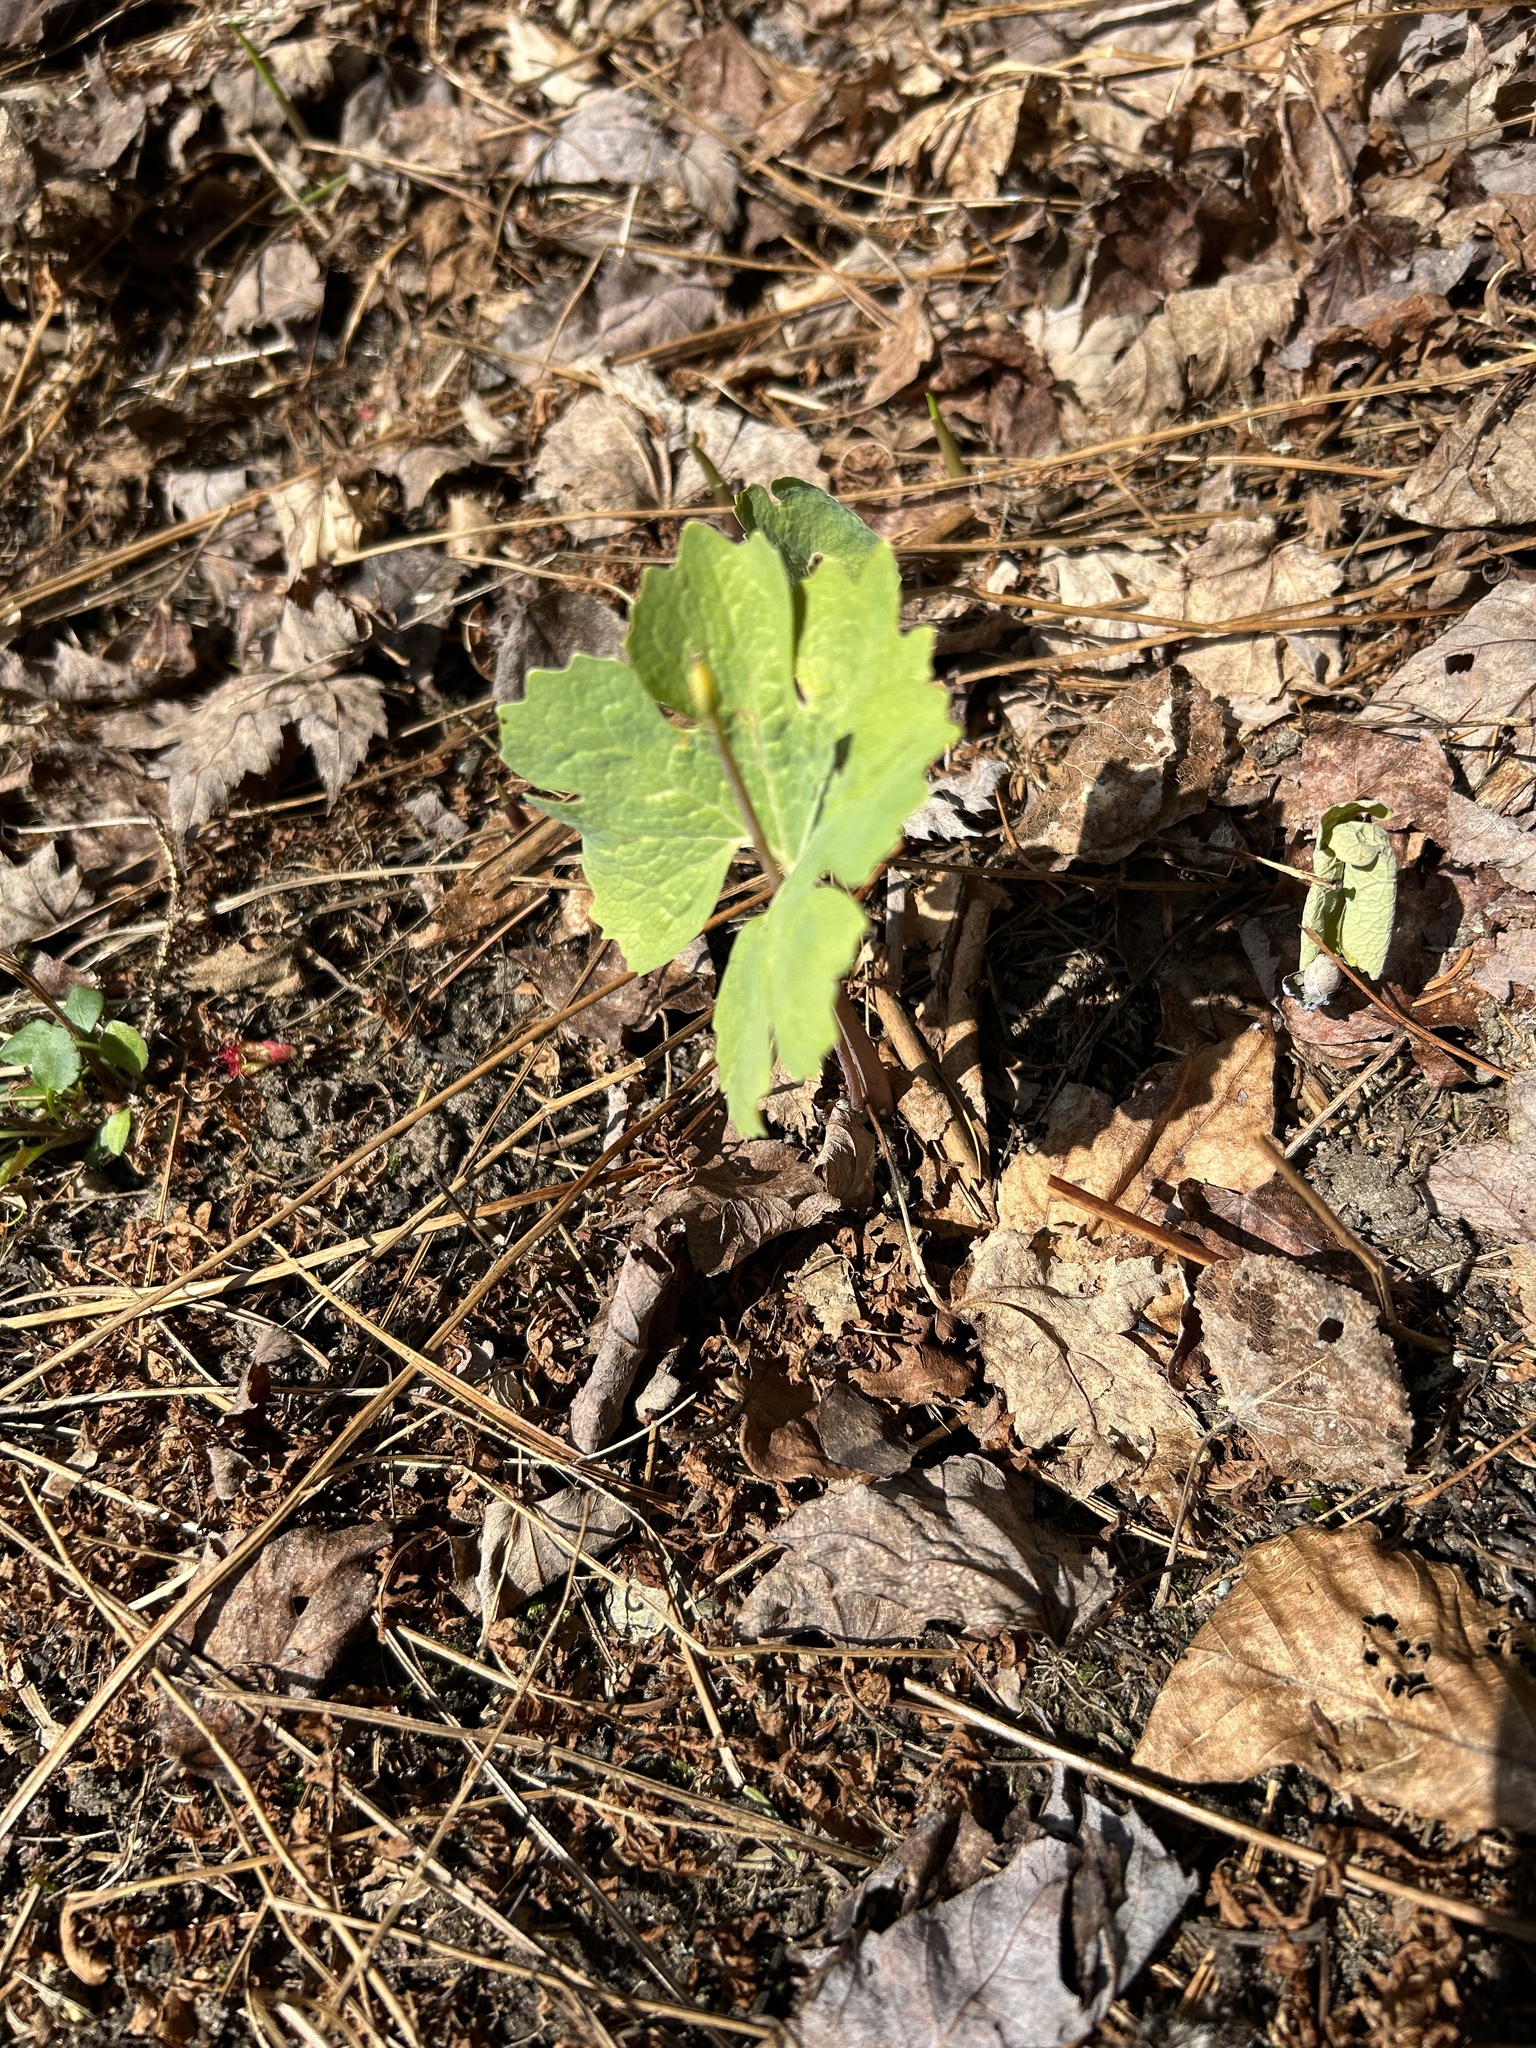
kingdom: Plantae
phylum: Tracheophyta
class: Magnoliopsida
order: Ranunculales
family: Papaveraceae
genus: Sanguinaria
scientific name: Sanguinaria canadensis
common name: Bloodroot
